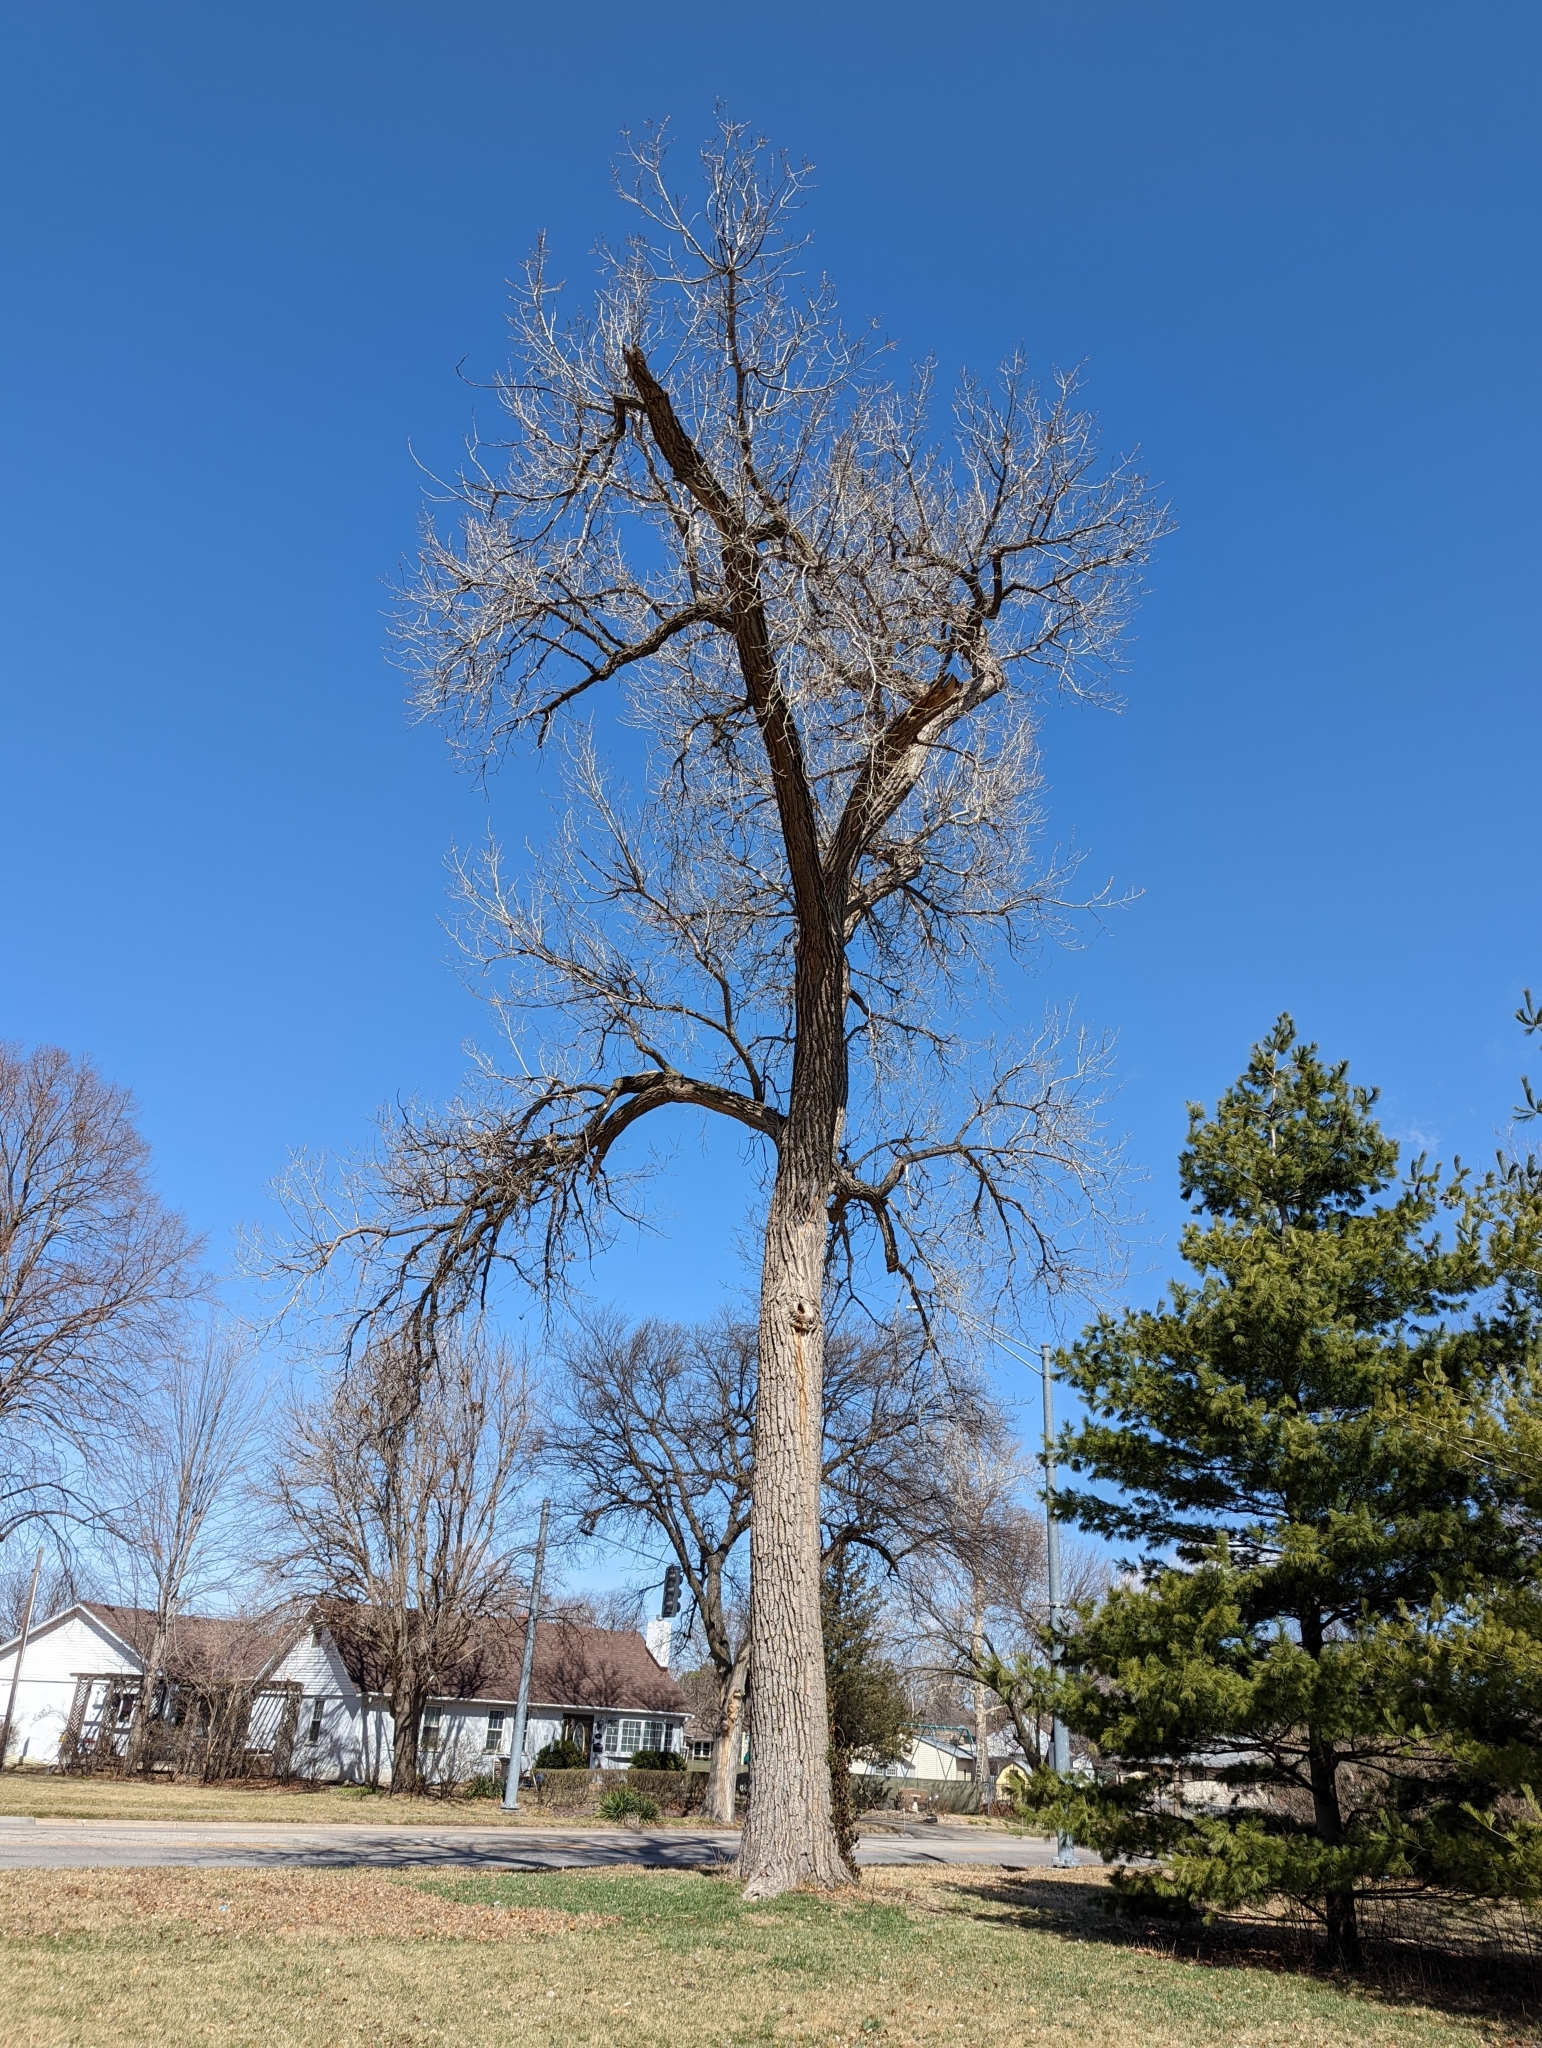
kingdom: Plantae
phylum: Tracheophyta
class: Magnoliopsida
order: Malpighiales
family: Salicaceae
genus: Populus
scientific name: Populus deltoides
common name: Eastern cottonwood
